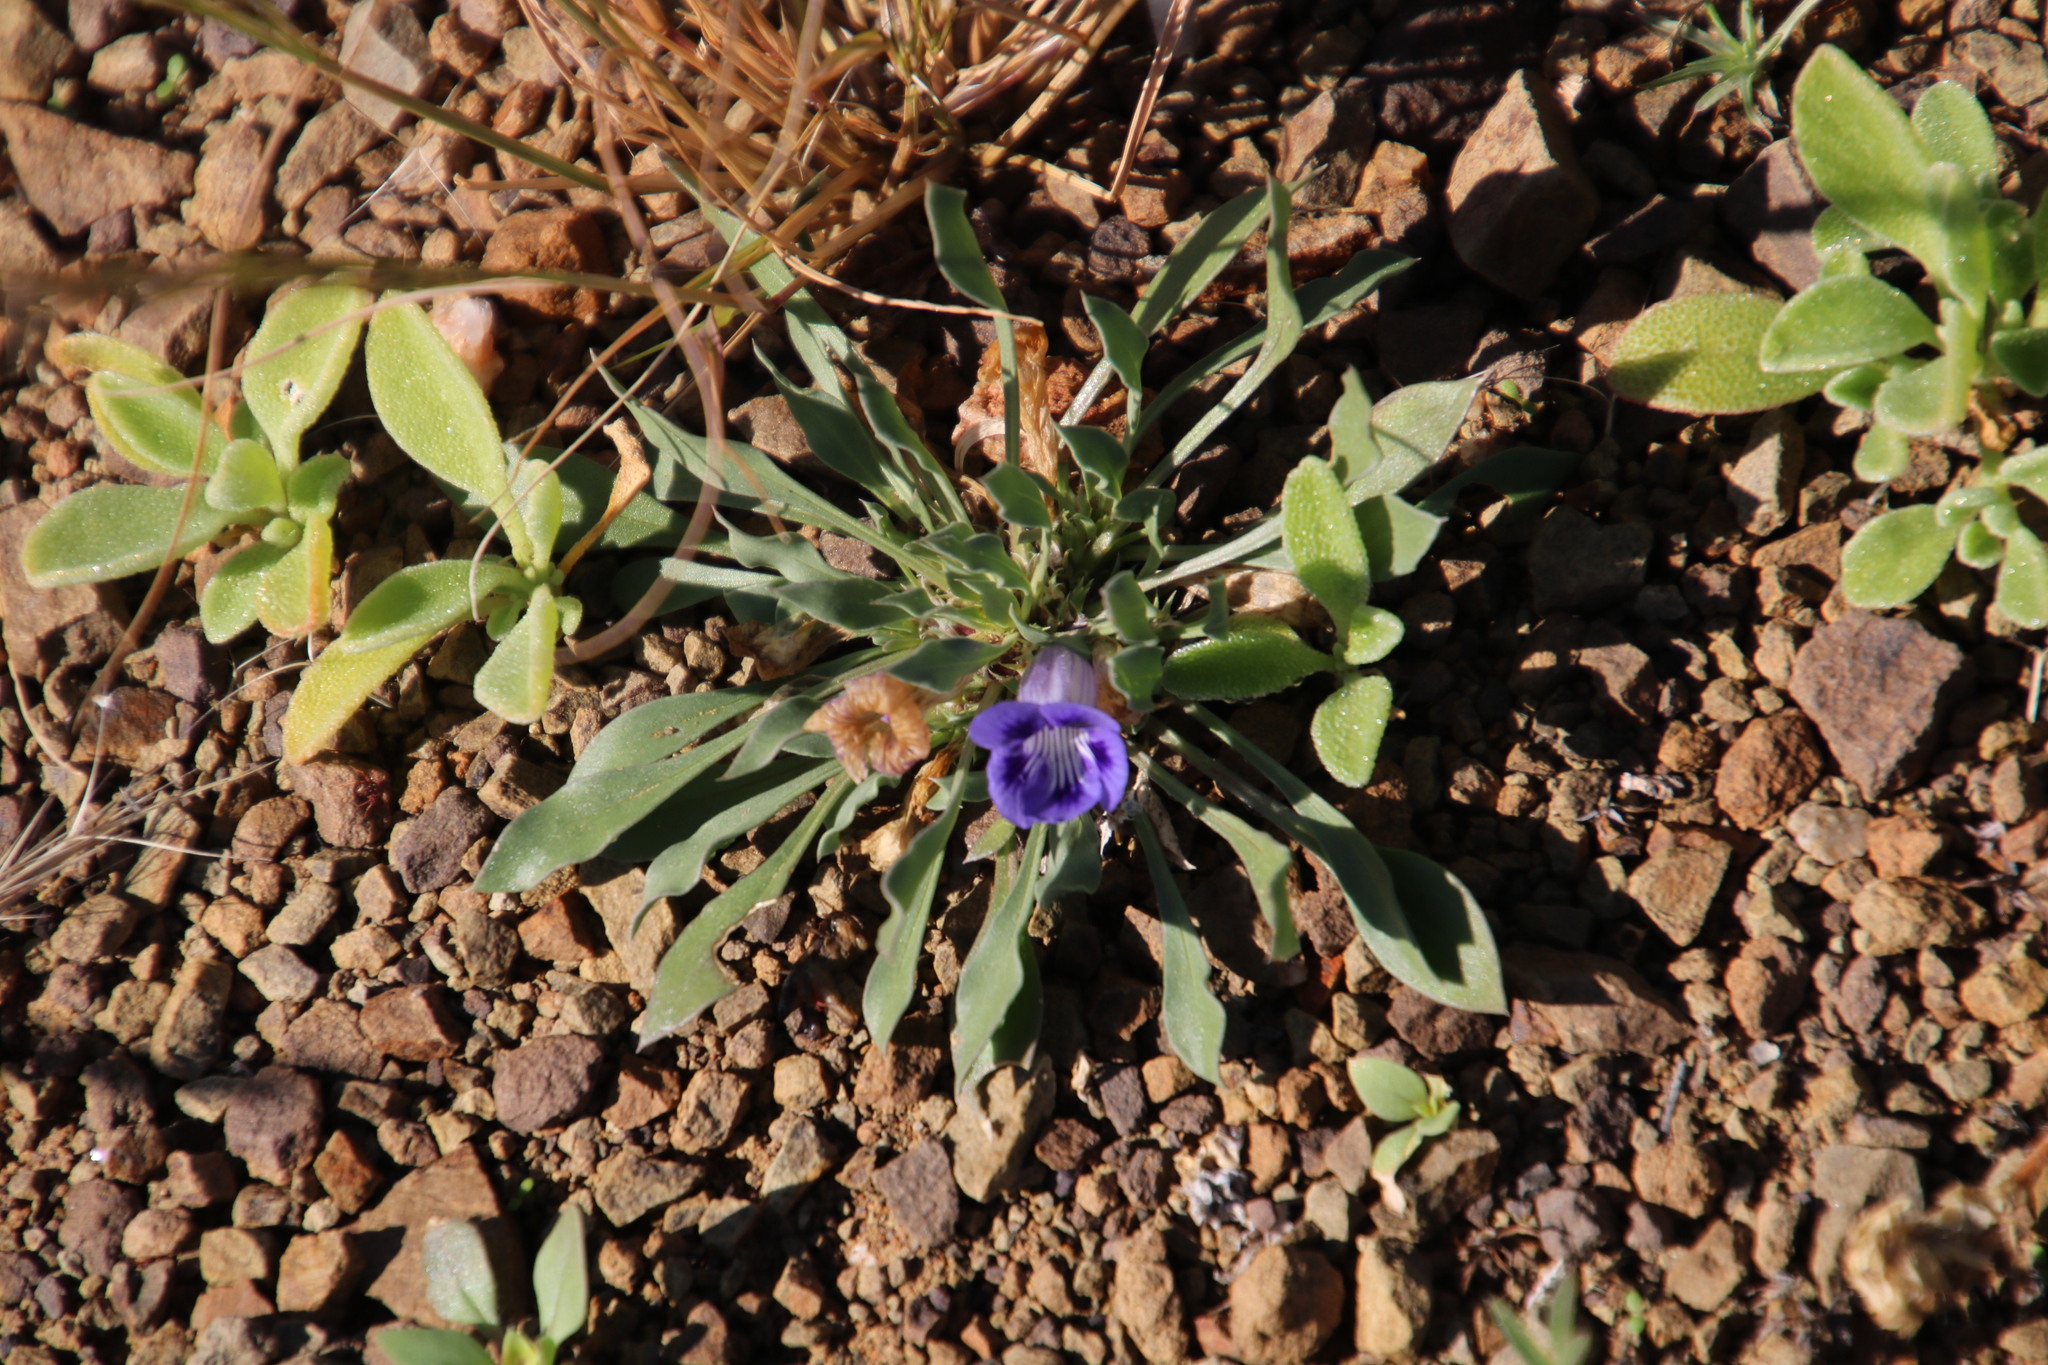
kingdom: Plantae
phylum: Tracheophyta
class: Magnoliopsida
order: Lamiales
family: Scrophulariaceae
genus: Aptosimum
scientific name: Aptosimum indivisum
